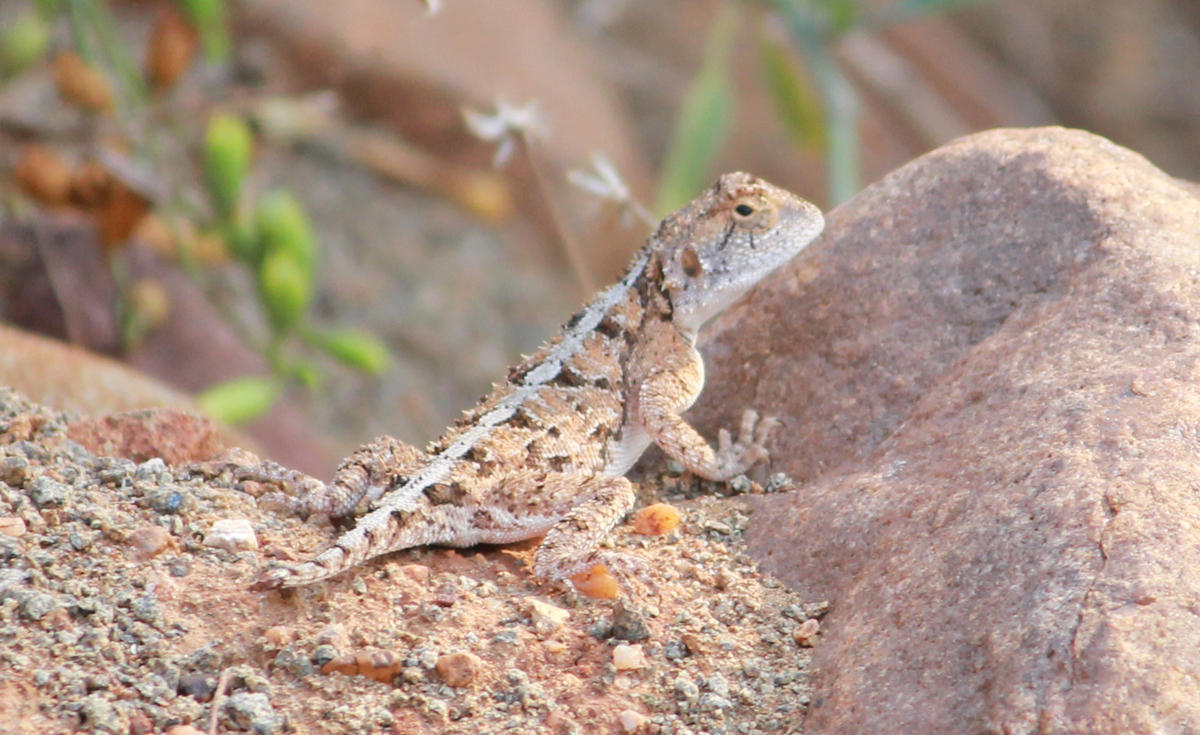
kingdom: Animalia
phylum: Chordata
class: Squamata
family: Agamidae
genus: Agama
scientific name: Agama armata
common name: Northern ground agama
